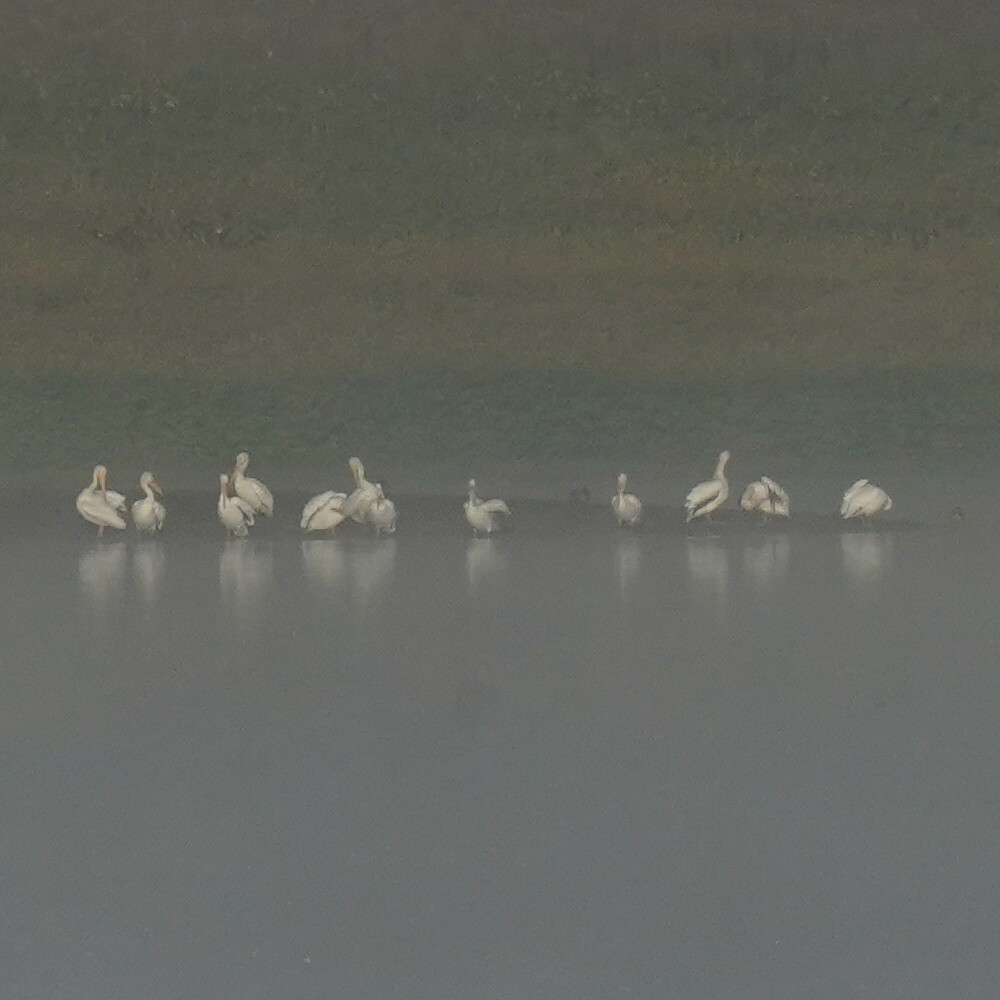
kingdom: Animalia
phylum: Chordata
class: Aves
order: Pelecaniformes
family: Pelecanidae
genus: Pelecanus
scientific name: Pelecanus erythrorhynchos
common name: American white pelican
